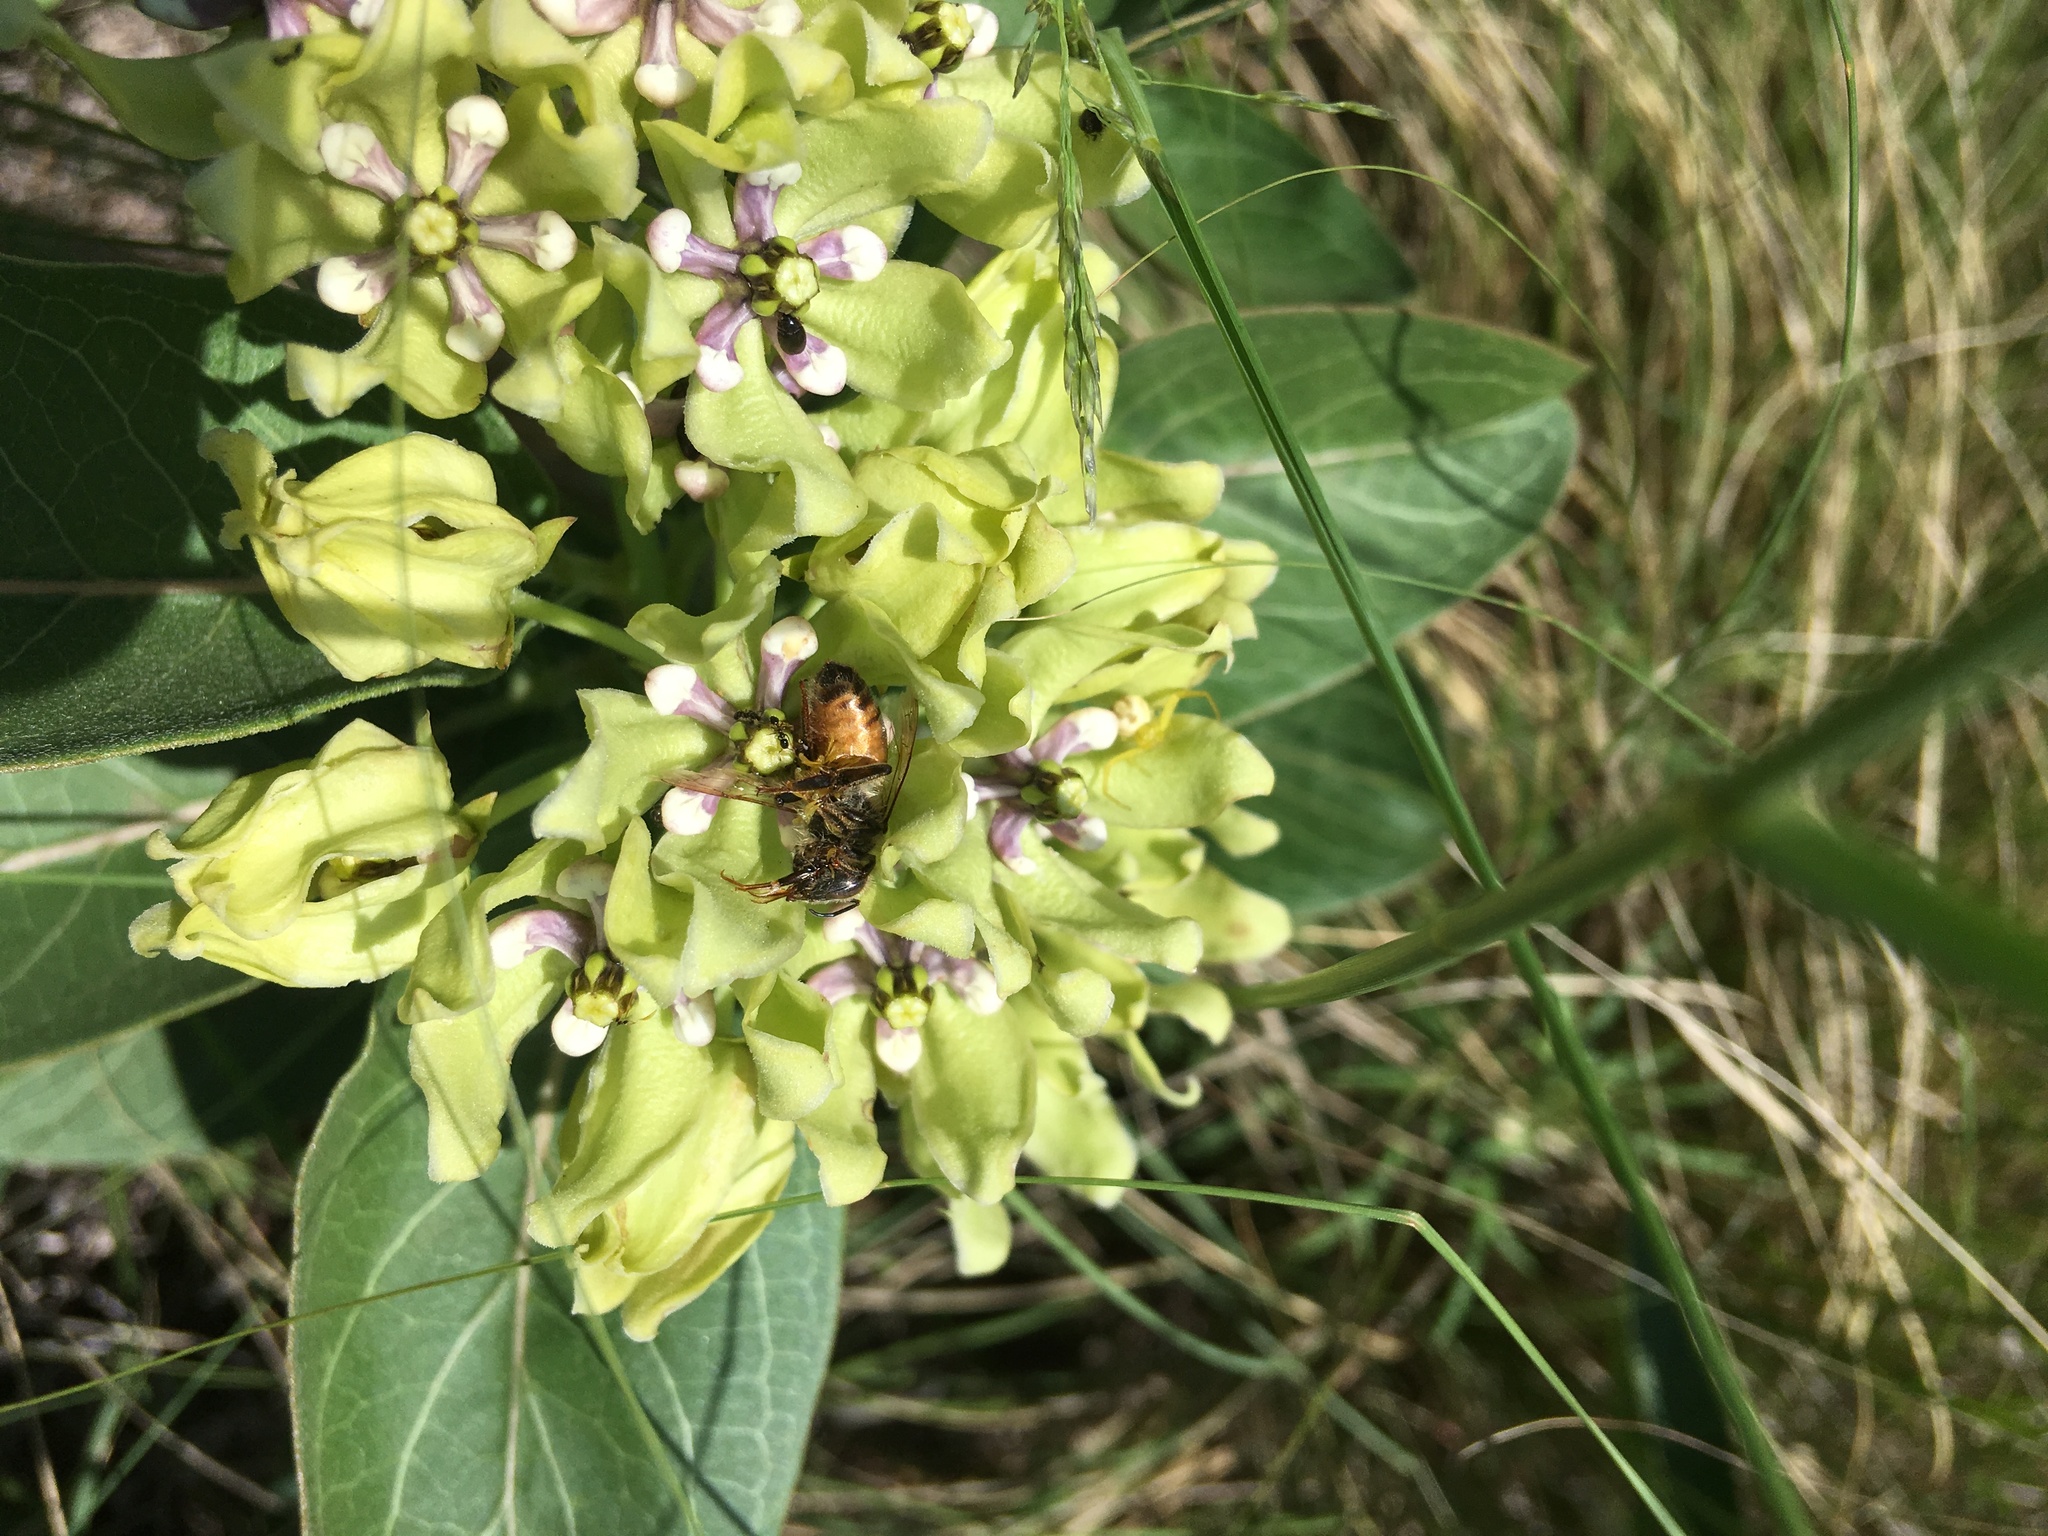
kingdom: Animalia
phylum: Arthropoda
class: Insecta
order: Hymenoptera
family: Apidae
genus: Apis
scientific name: Apis mellifera
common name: Honey bee
